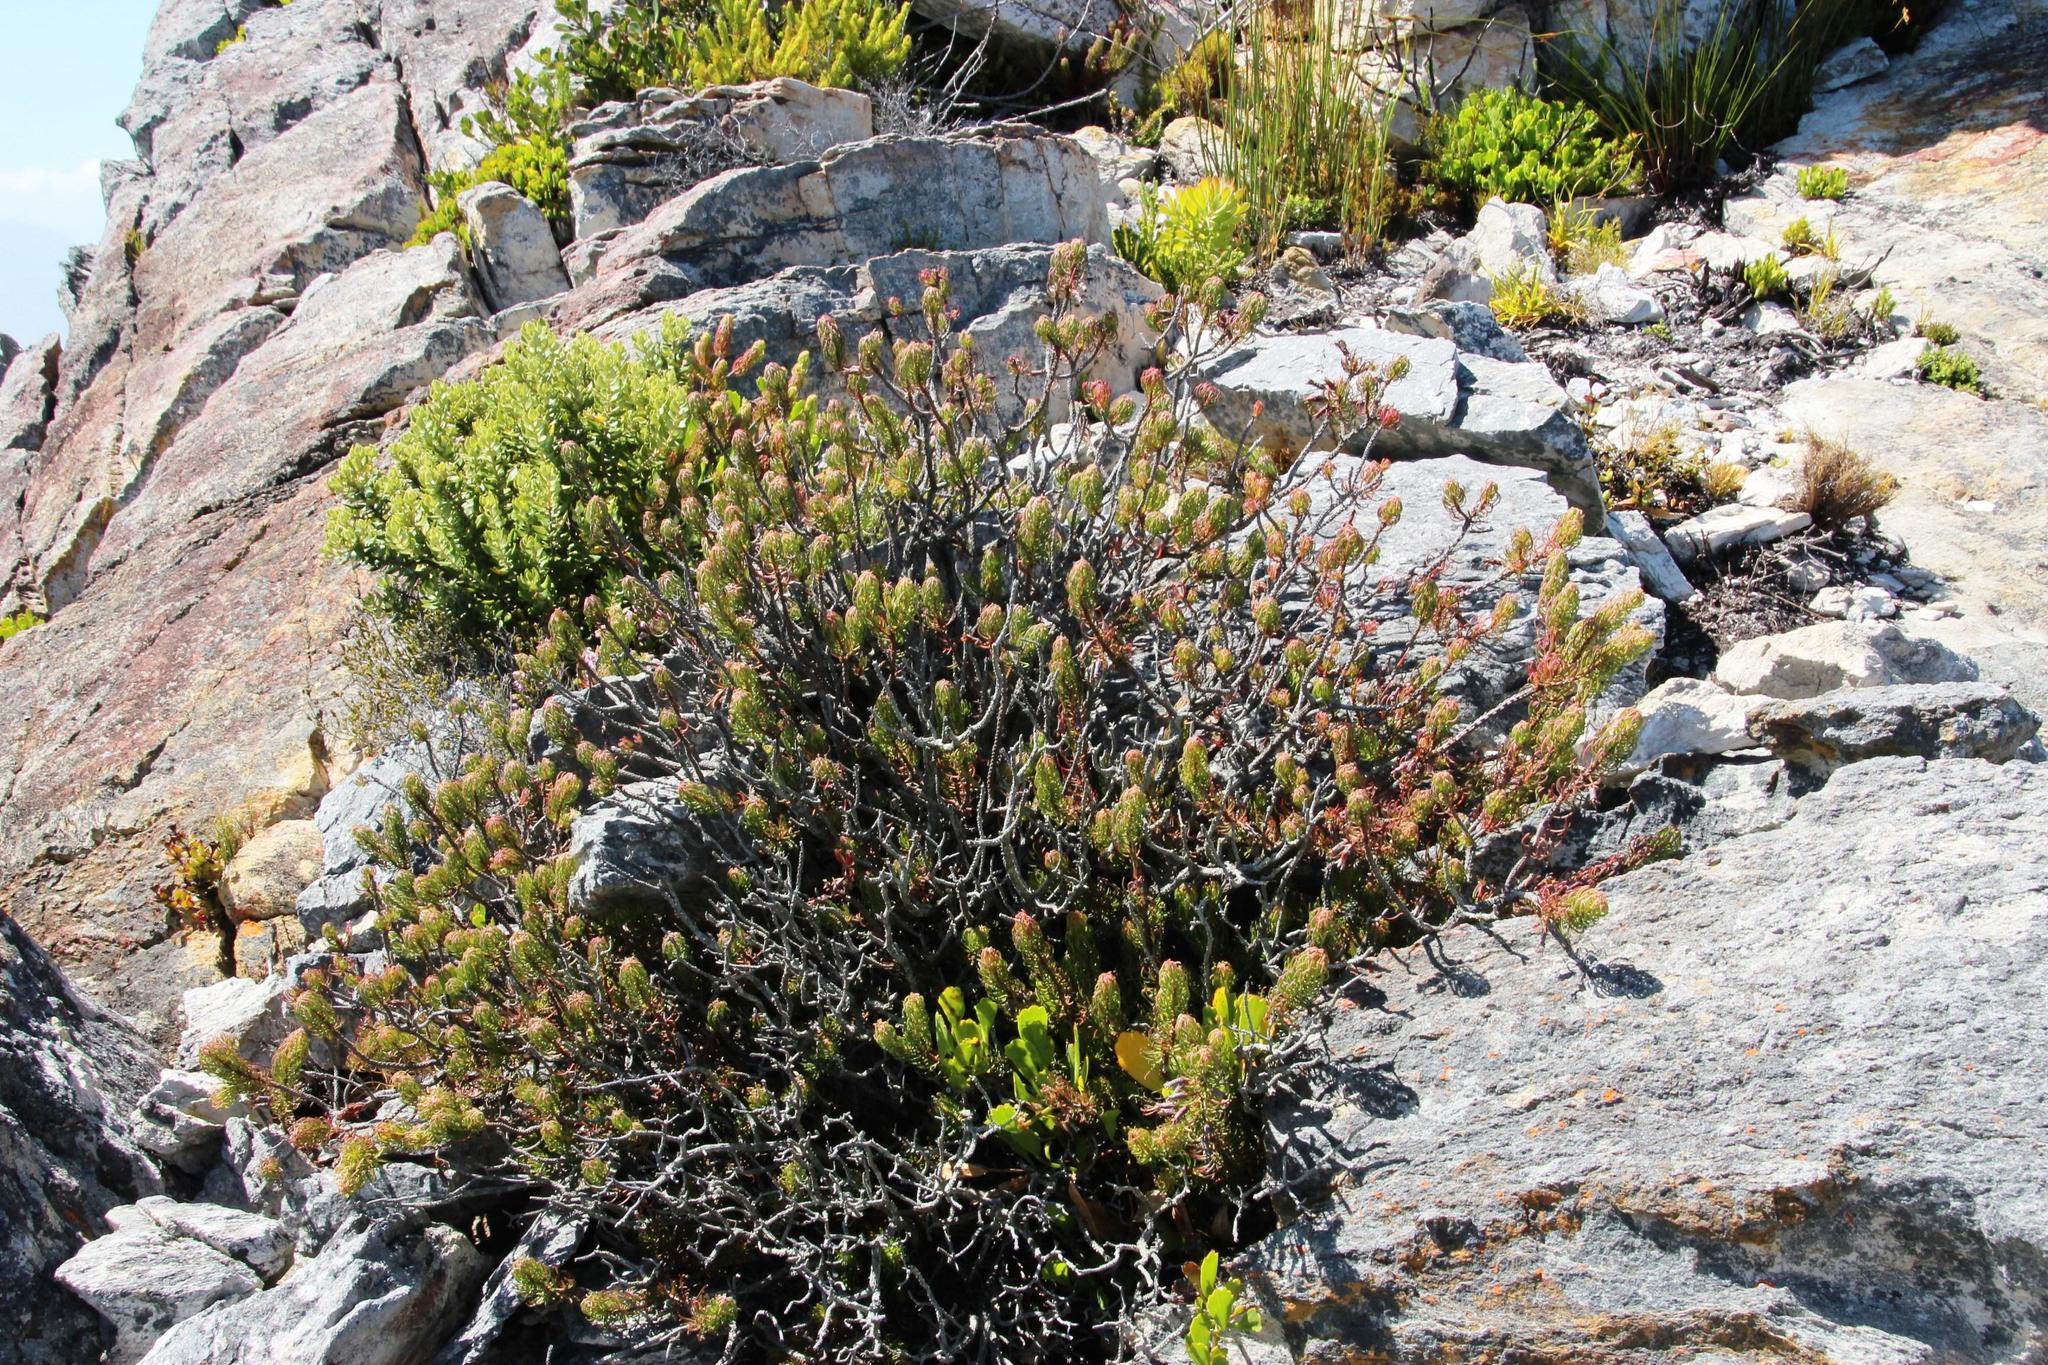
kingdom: Plantae
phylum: Tracheophyta
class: Magnoliopsida
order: Ericales
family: Ericaceae
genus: Erica
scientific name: Erica plukenetii
